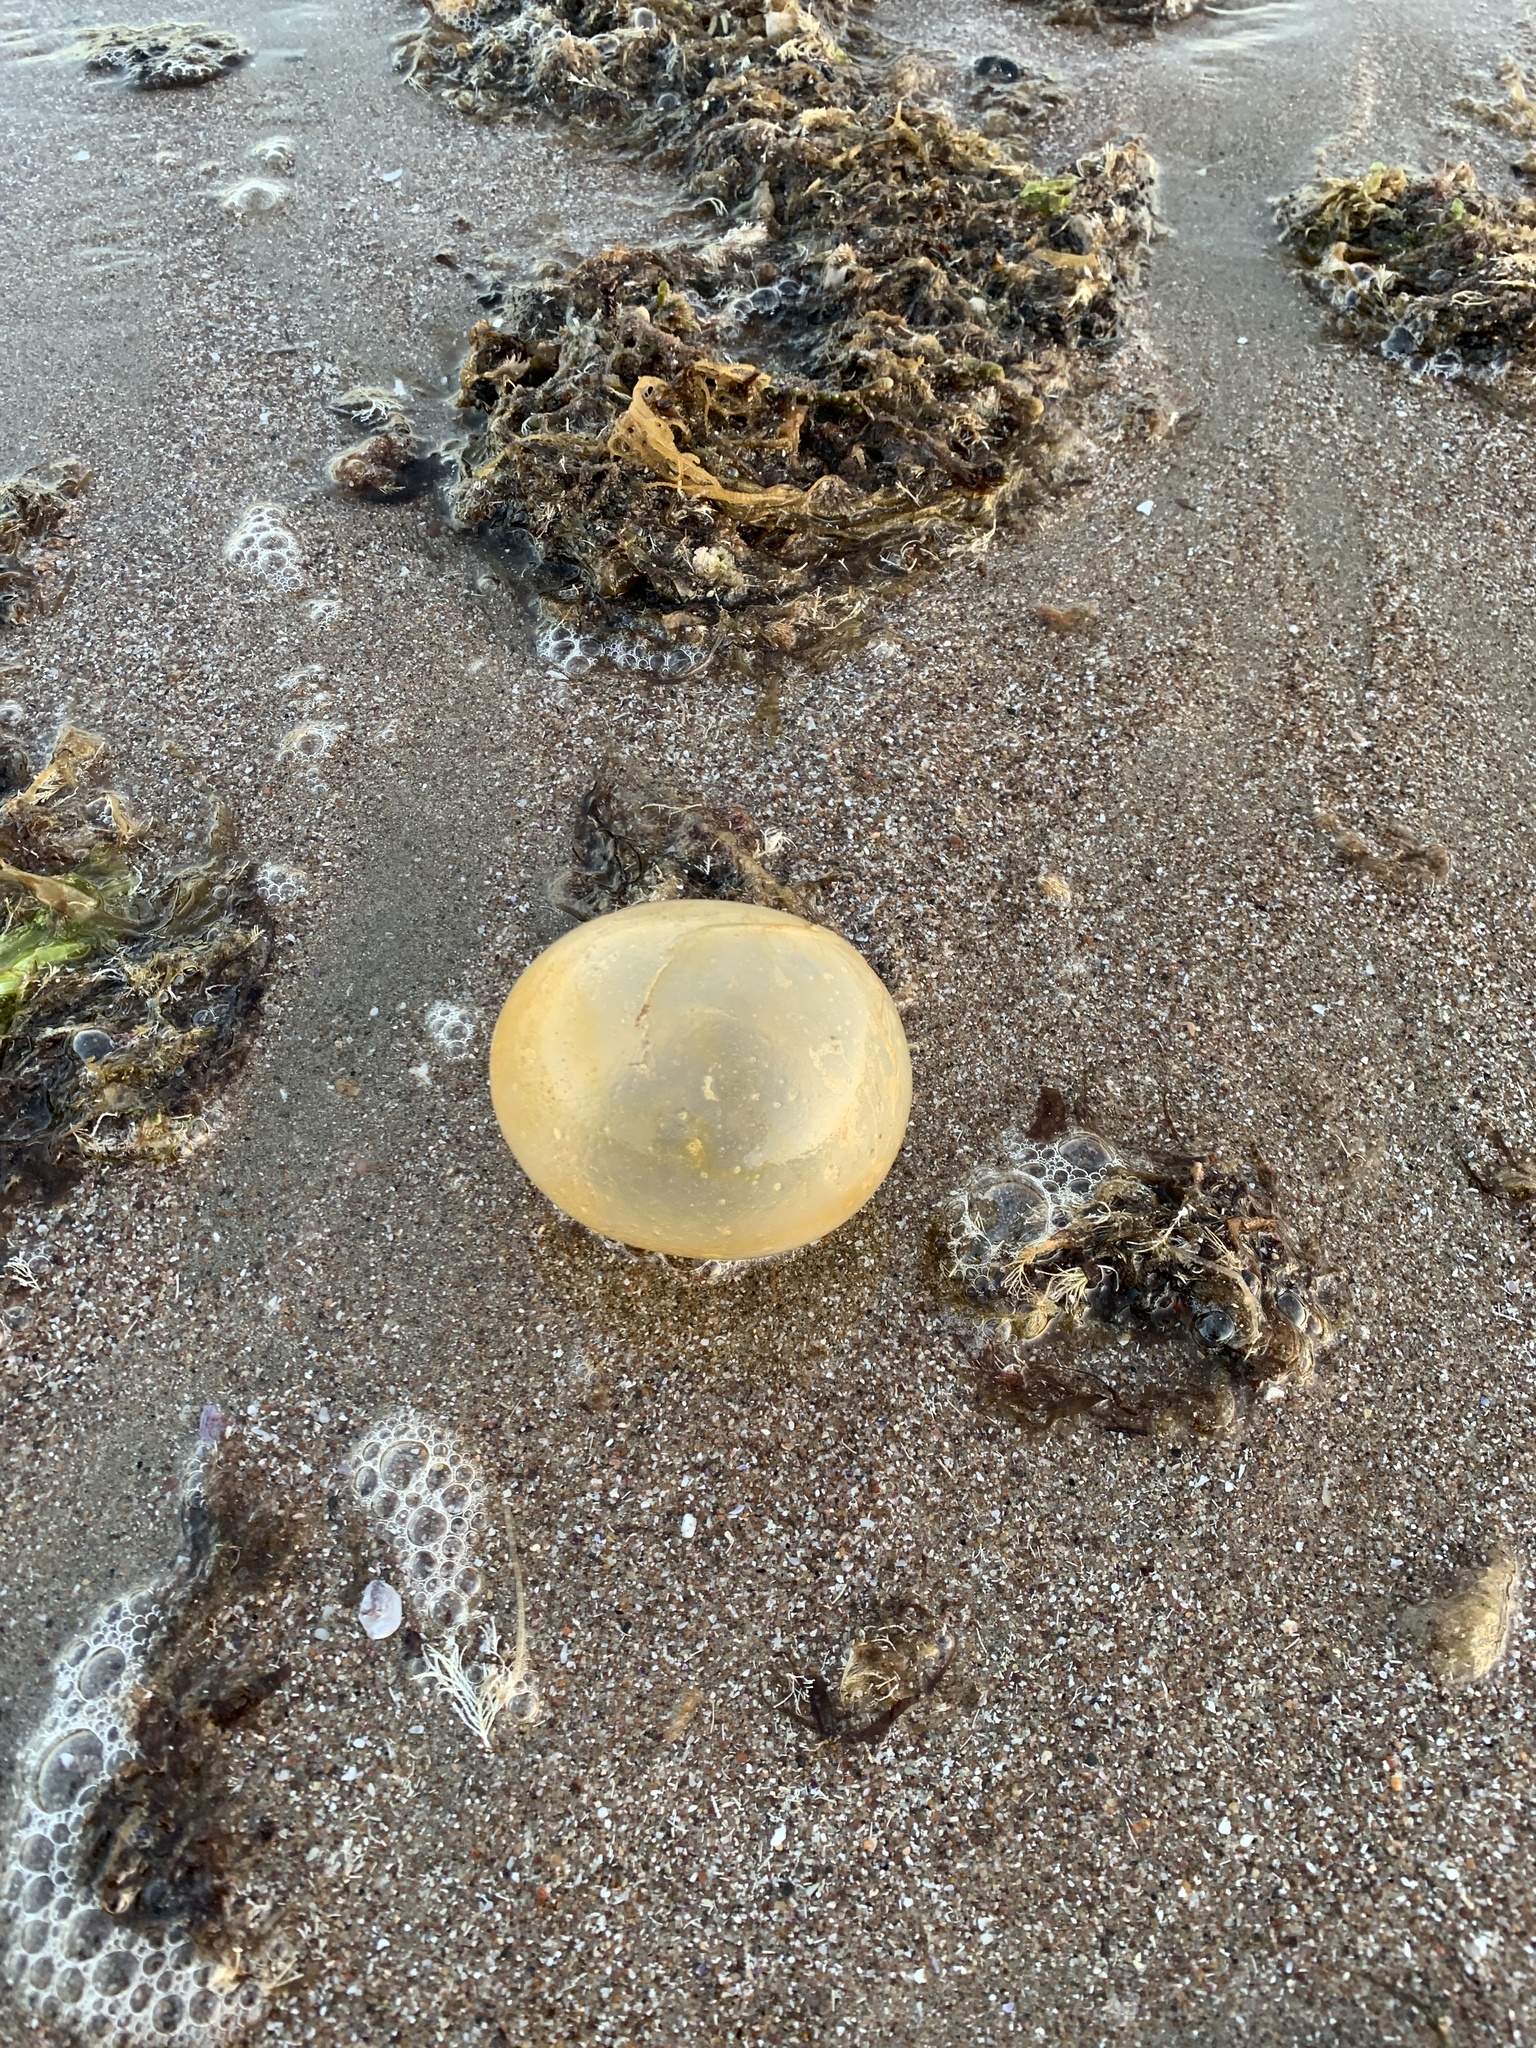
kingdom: Animalia
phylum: Mollusca
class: Gastropoda
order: Neogastropoda
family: Volutidae
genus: Pachycymbiola
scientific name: Pachycymbiola brasiliana
